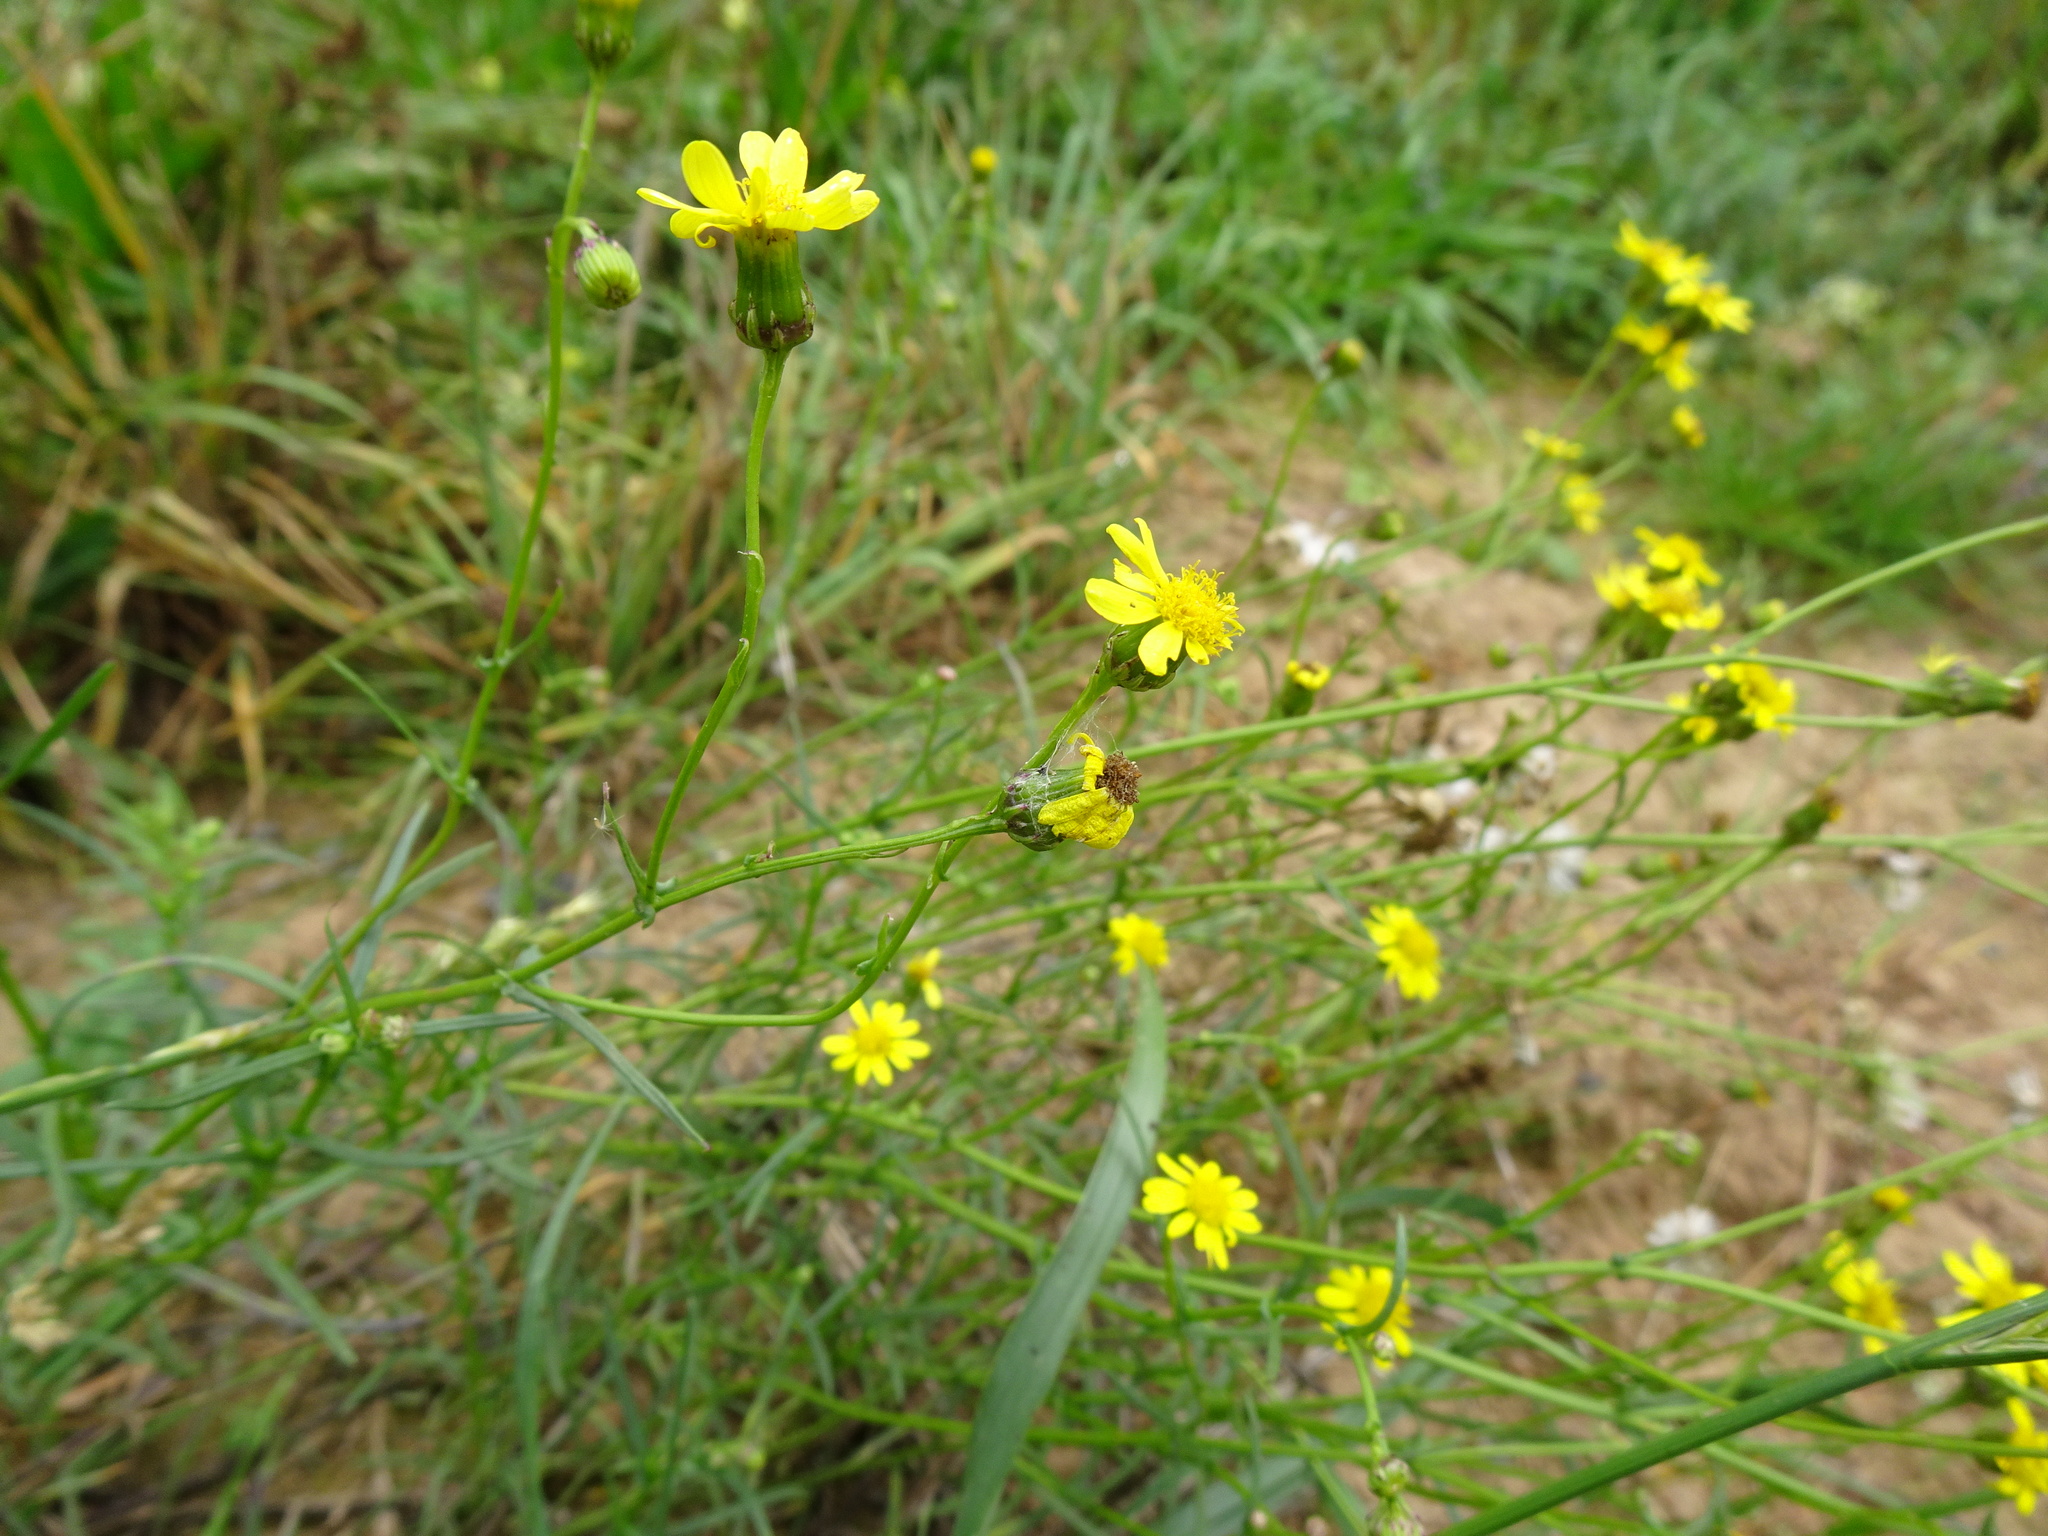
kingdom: Plantae
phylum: Tracheophyta
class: Magnoliopsida
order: Asterales
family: Asteraceae
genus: Senecio
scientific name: Senecio inaequidens
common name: Narrow-leaved ragwort
